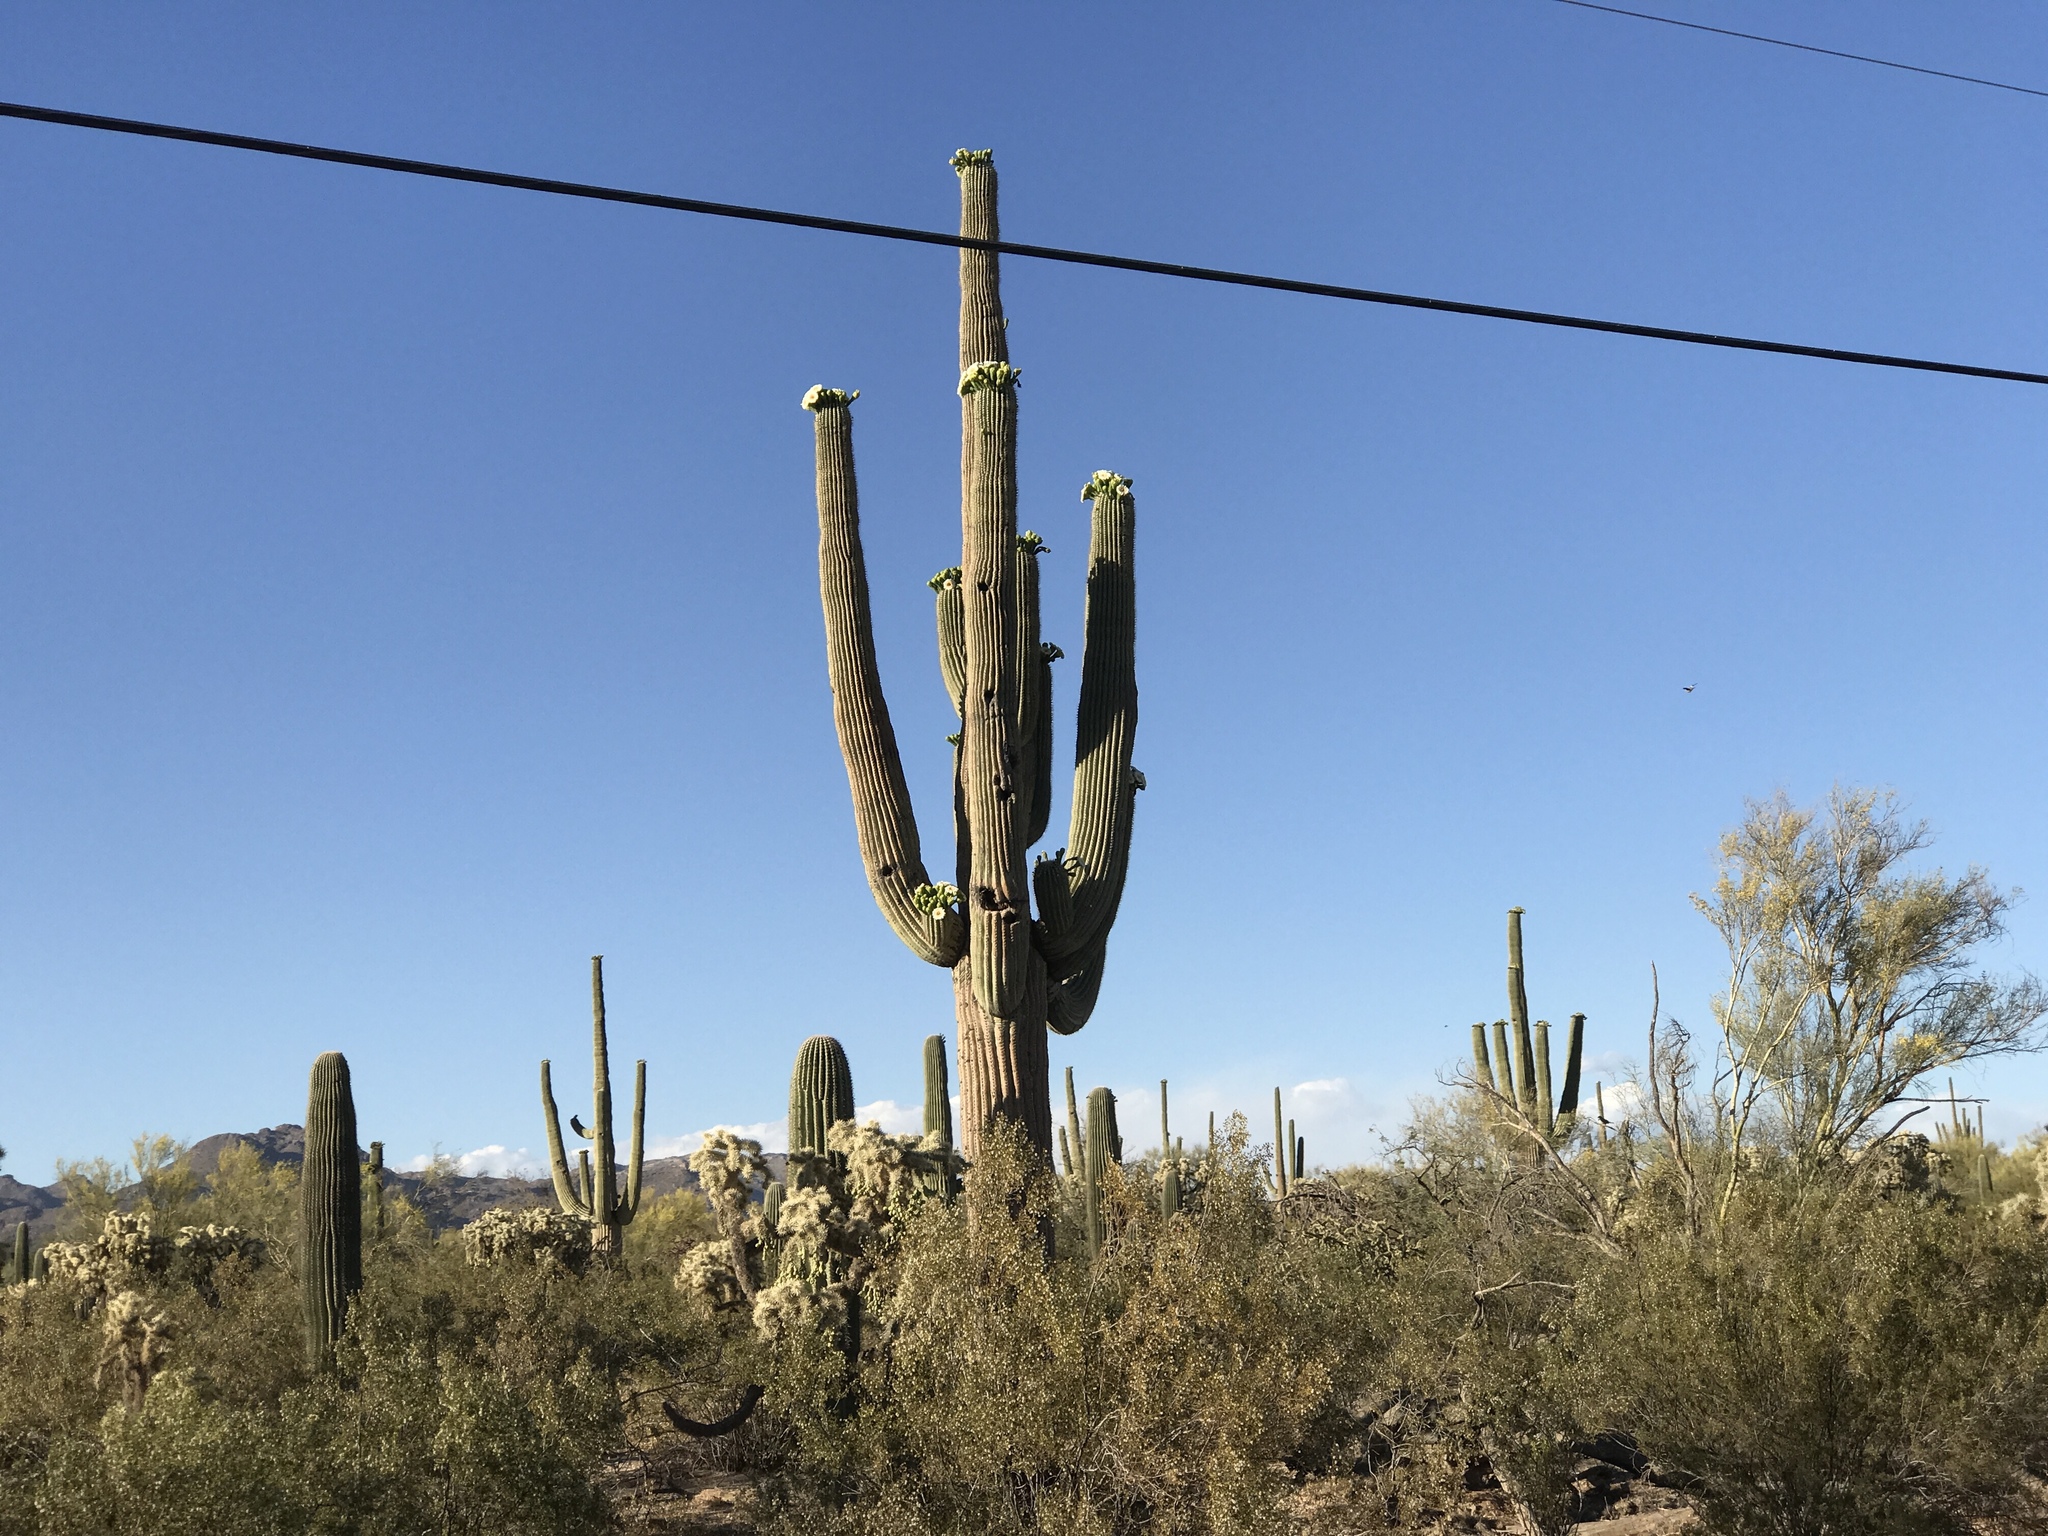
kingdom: Plantae
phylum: Tracheophyta
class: Magnoliopsida
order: Caryophyllales
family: Cactaceae
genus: Carnegiea
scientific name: Carnegiea gigantea
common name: Saguaro
